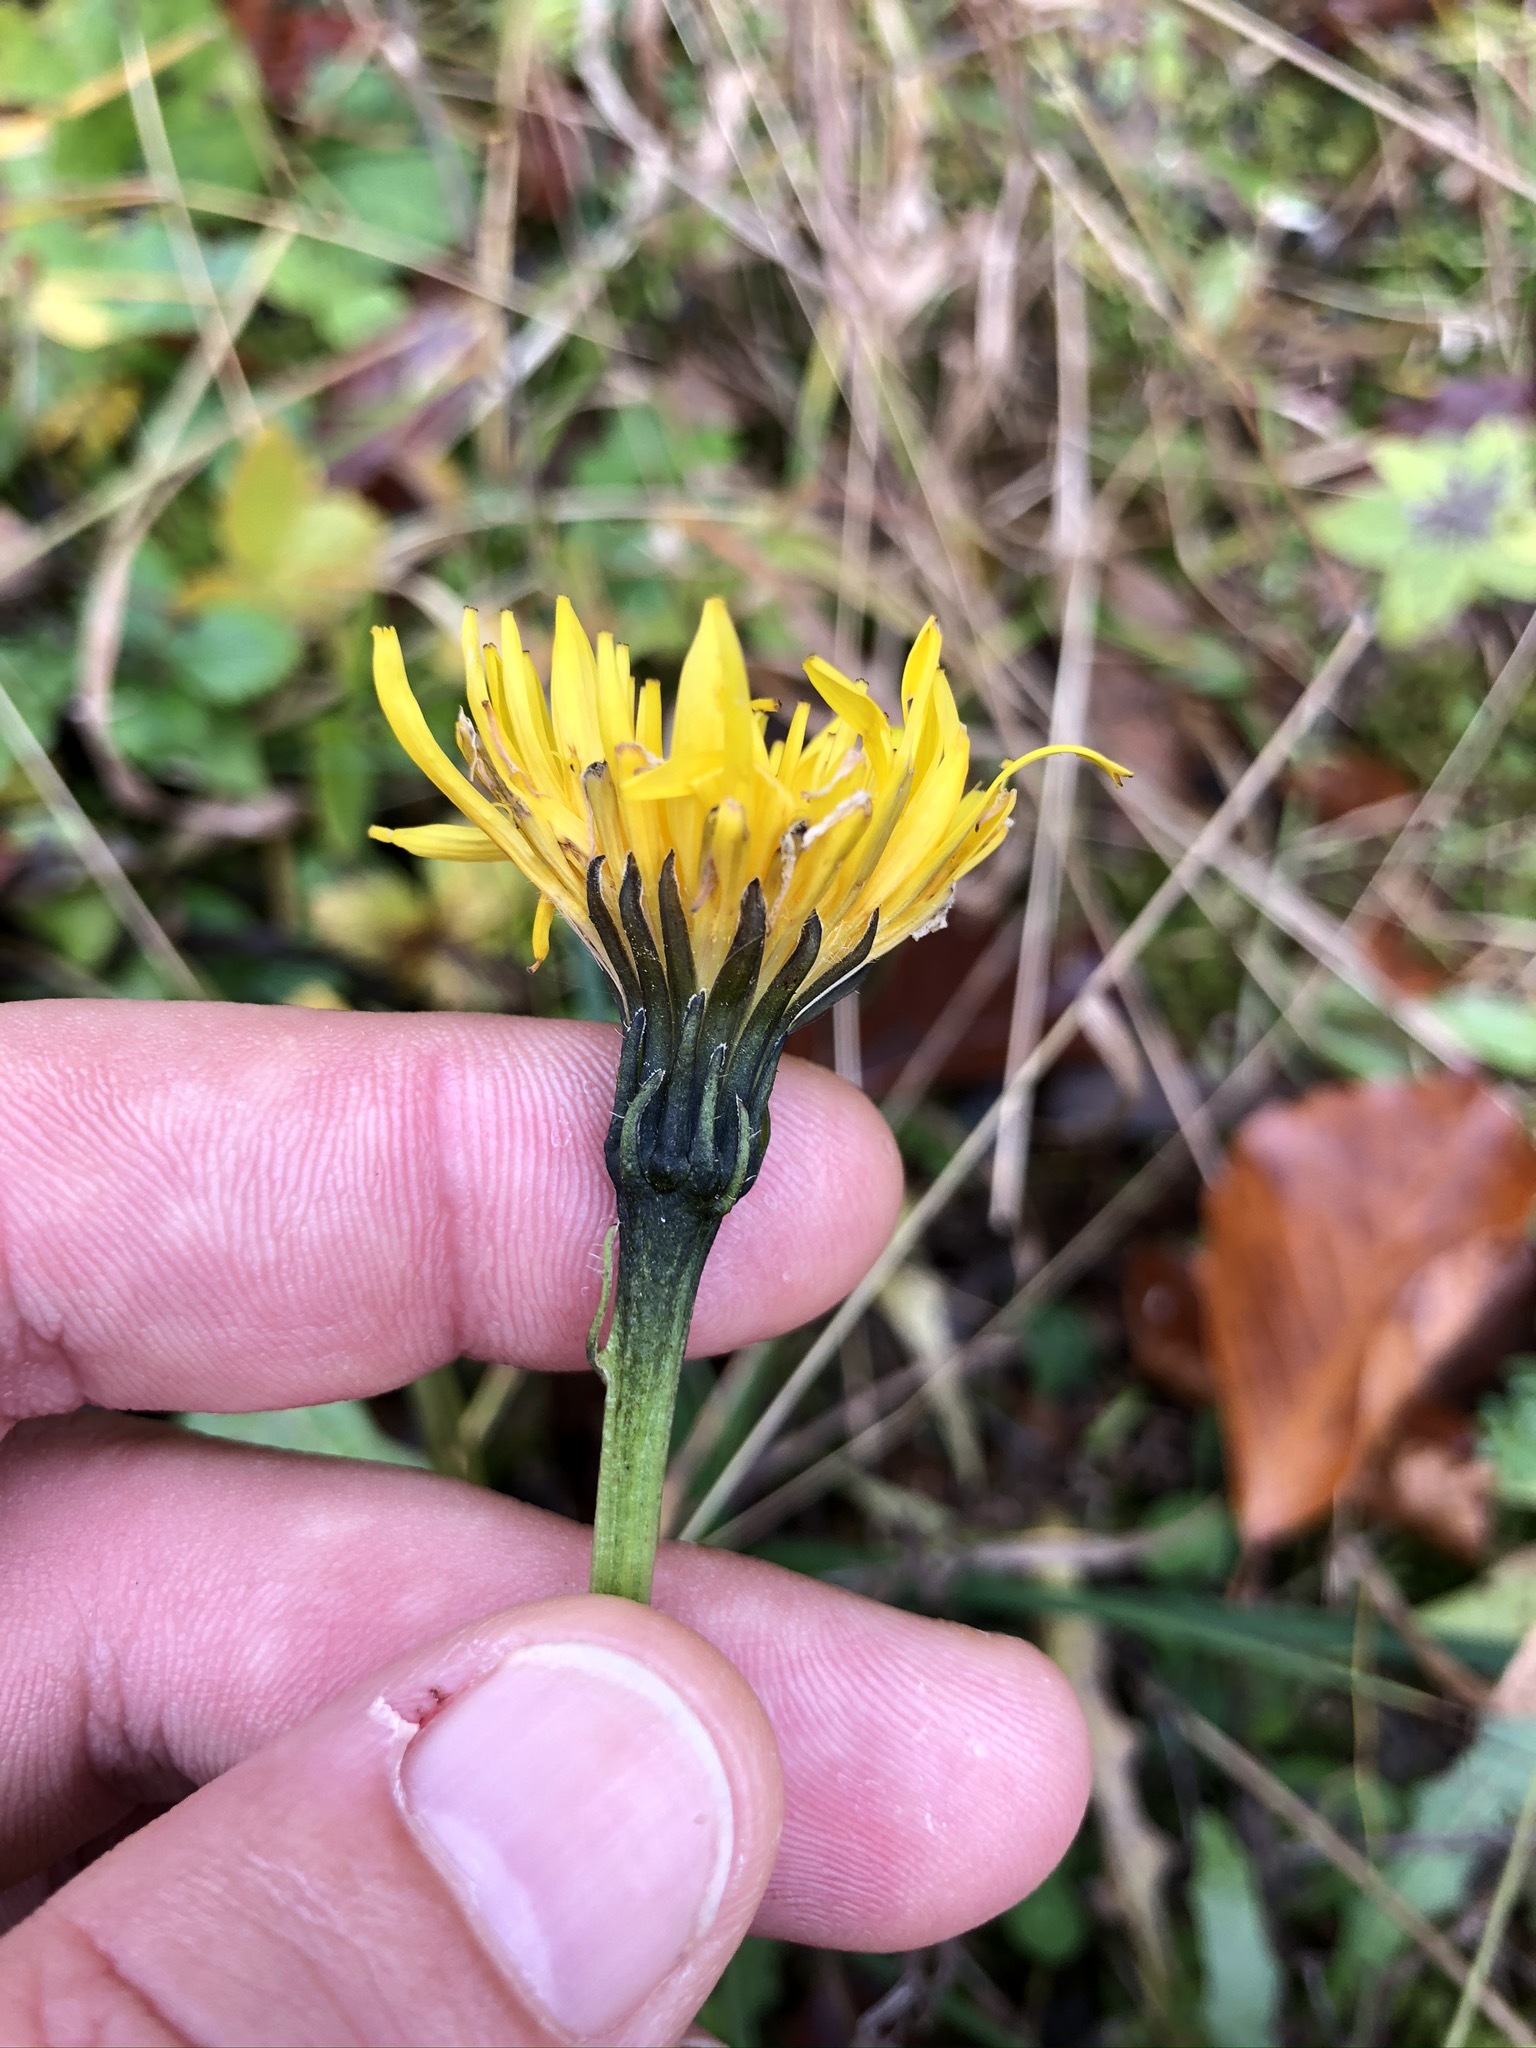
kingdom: Plantae
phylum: Tracheophyta
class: Magnoliopsida
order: Asterales
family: Asteraceae
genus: Leontodon
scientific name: Leontodon hispidus
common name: Rough hawkbit
